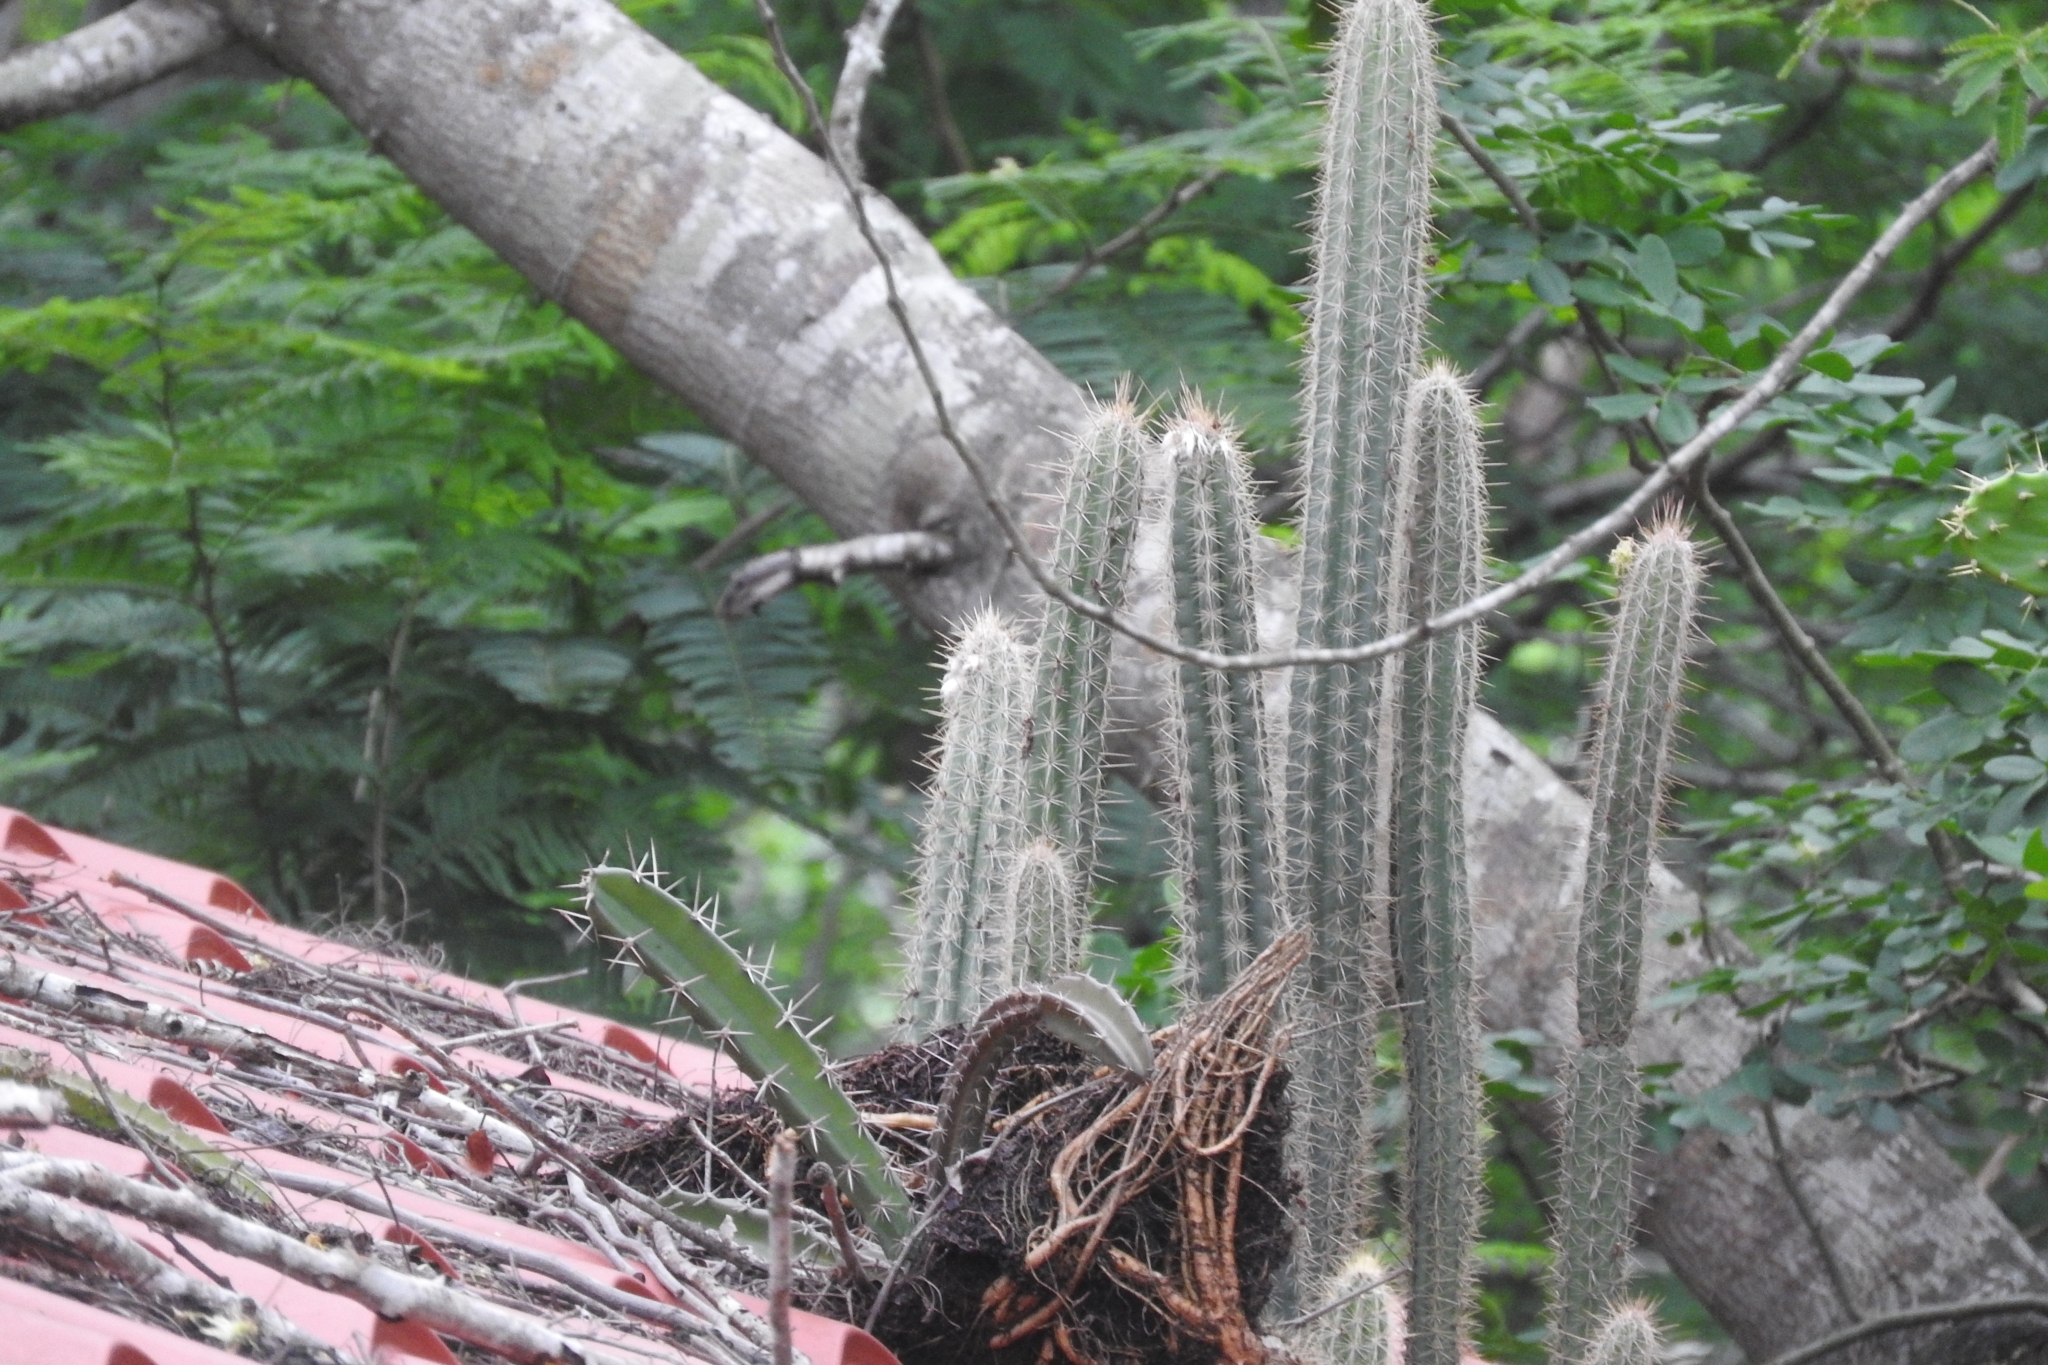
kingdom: Plantae
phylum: Tracheophyta
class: Magnoliopsida
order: Caryophyllales
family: Cactaceae
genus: Pilosocereus
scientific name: Pilosocereus gaumeri
